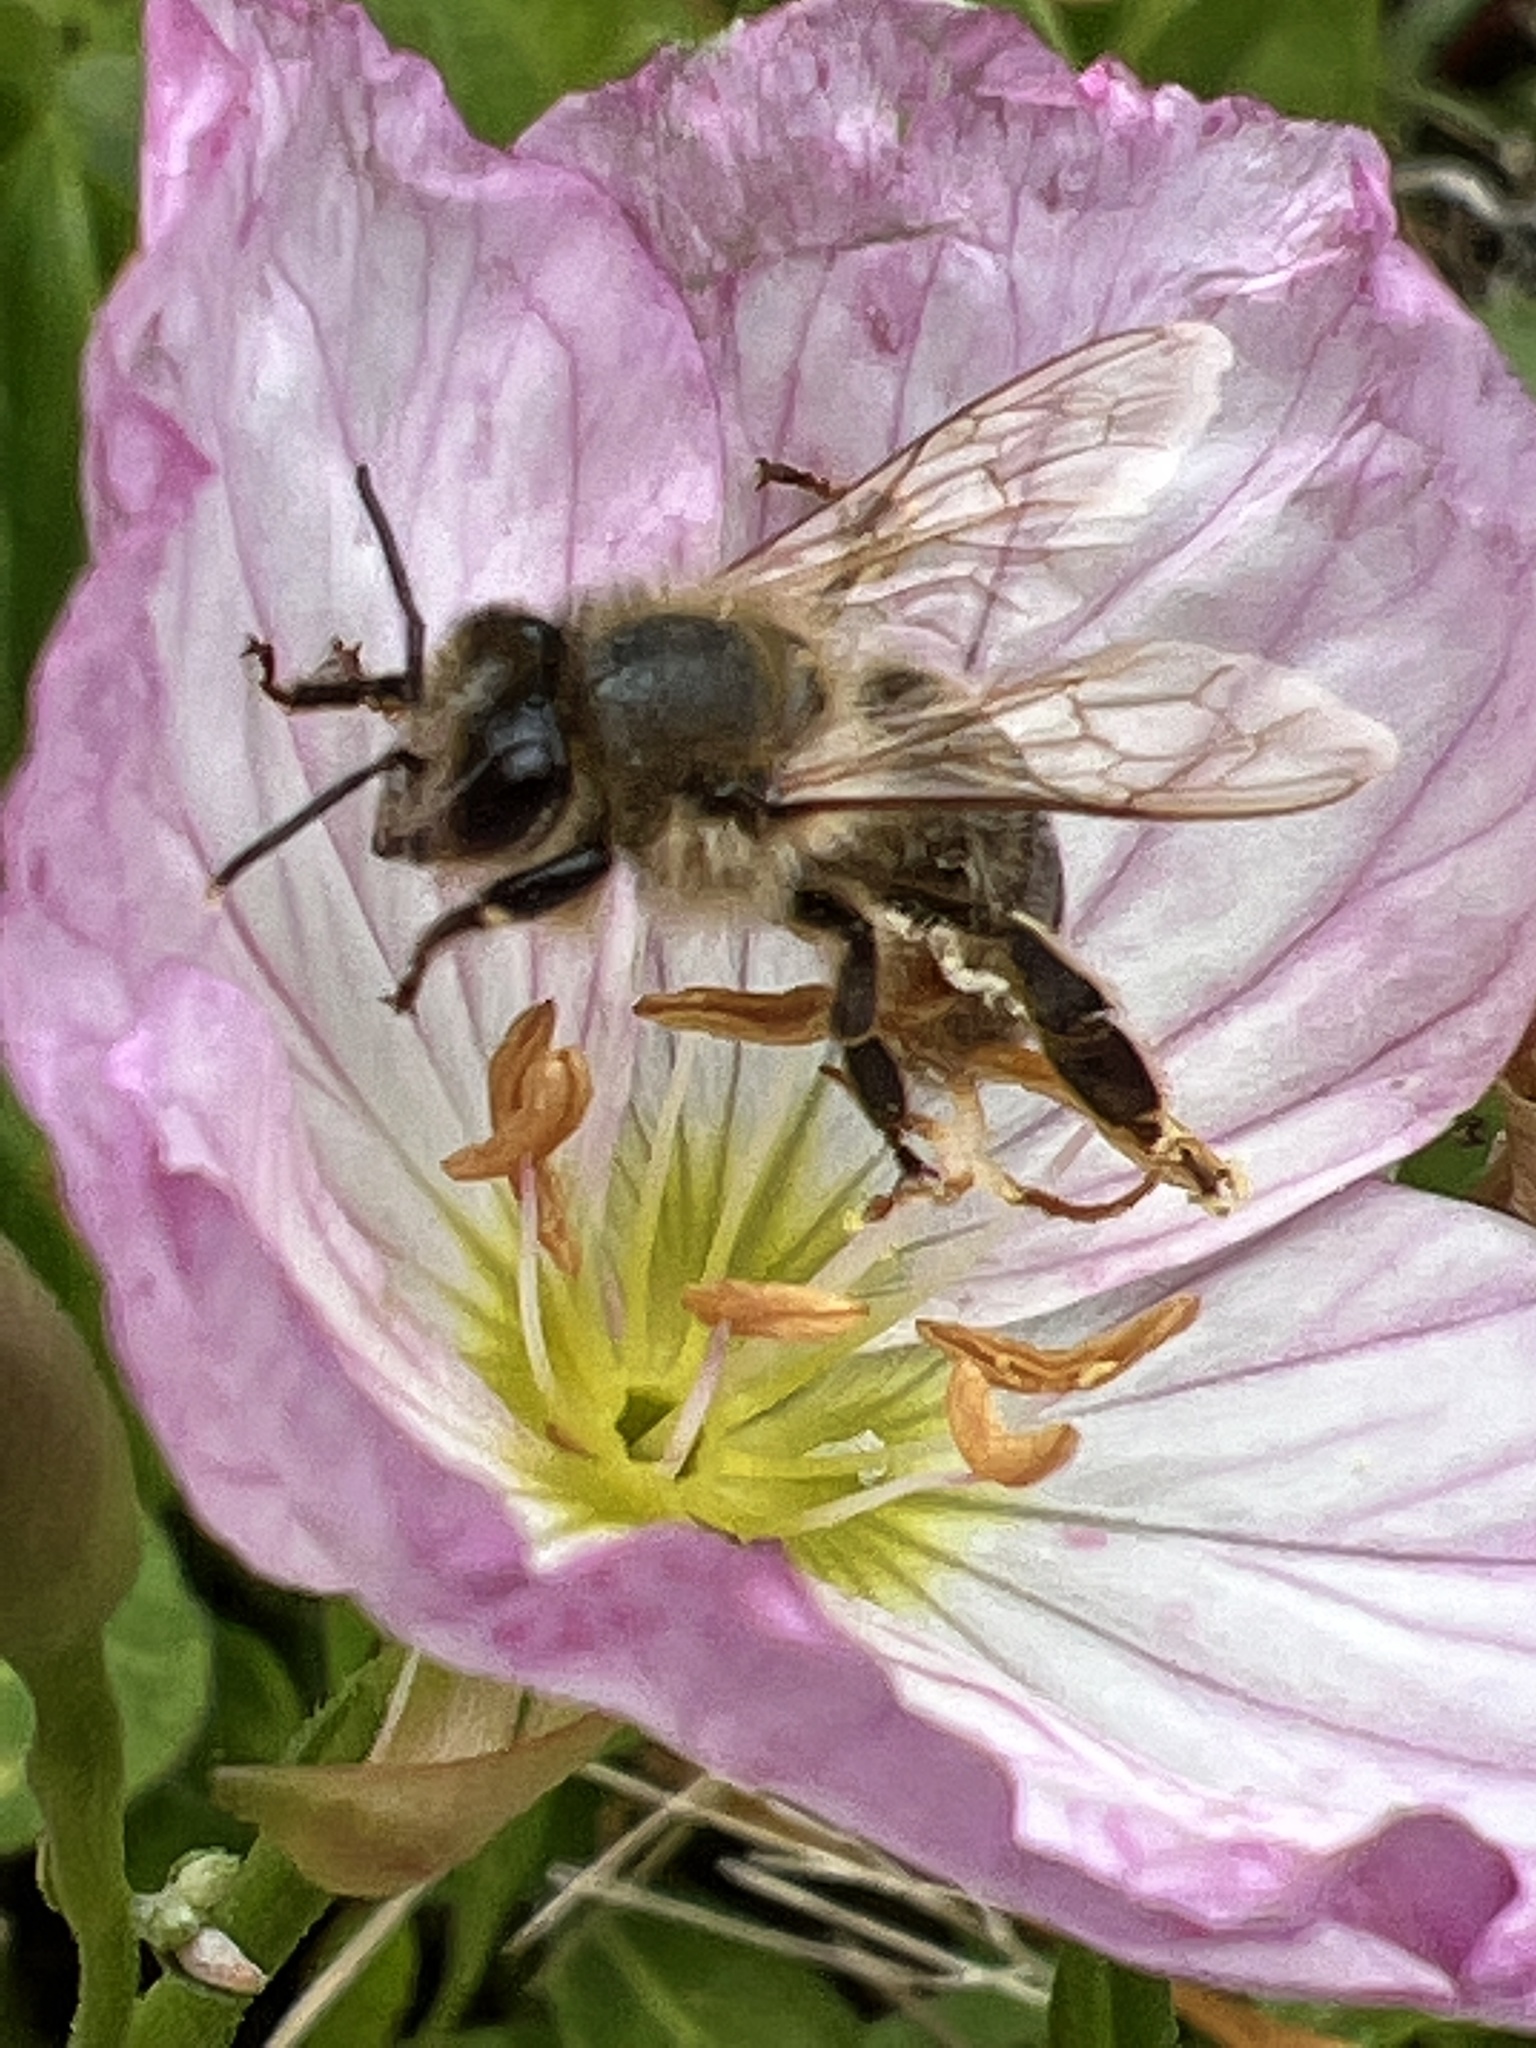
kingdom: Animalia
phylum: Arthropoda
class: Insecta
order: Hymenoptera
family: Apidae
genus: Apis
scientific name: Apis mellifera
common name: Honey bee
